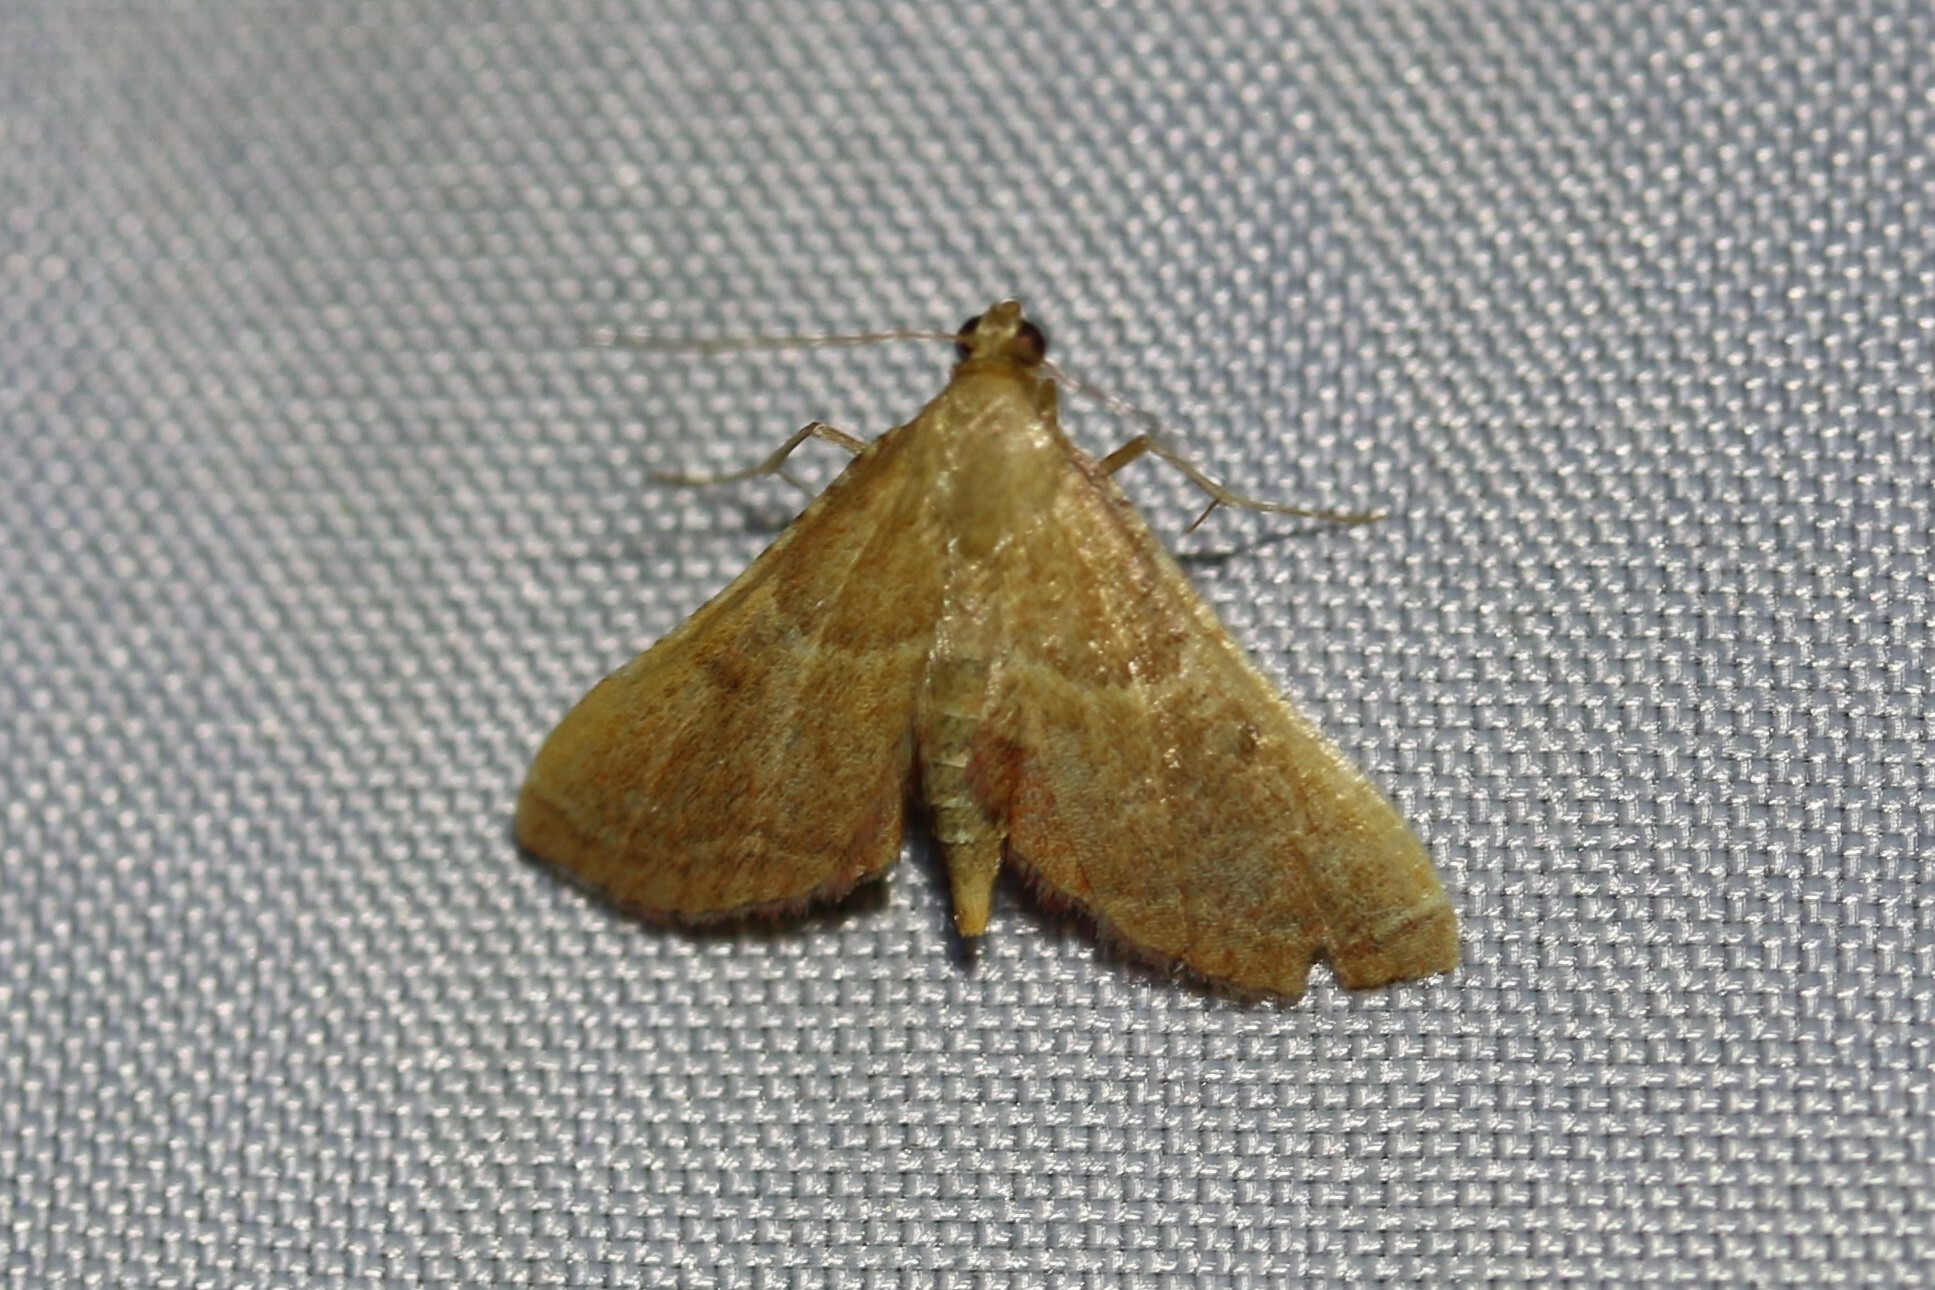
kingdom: Animalia
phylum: Arthropoda
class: Insecta
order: Lepidoptera
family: Pyralidae
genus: Endotricha
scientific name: Endotricha flammealis
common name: Rosy tabby
